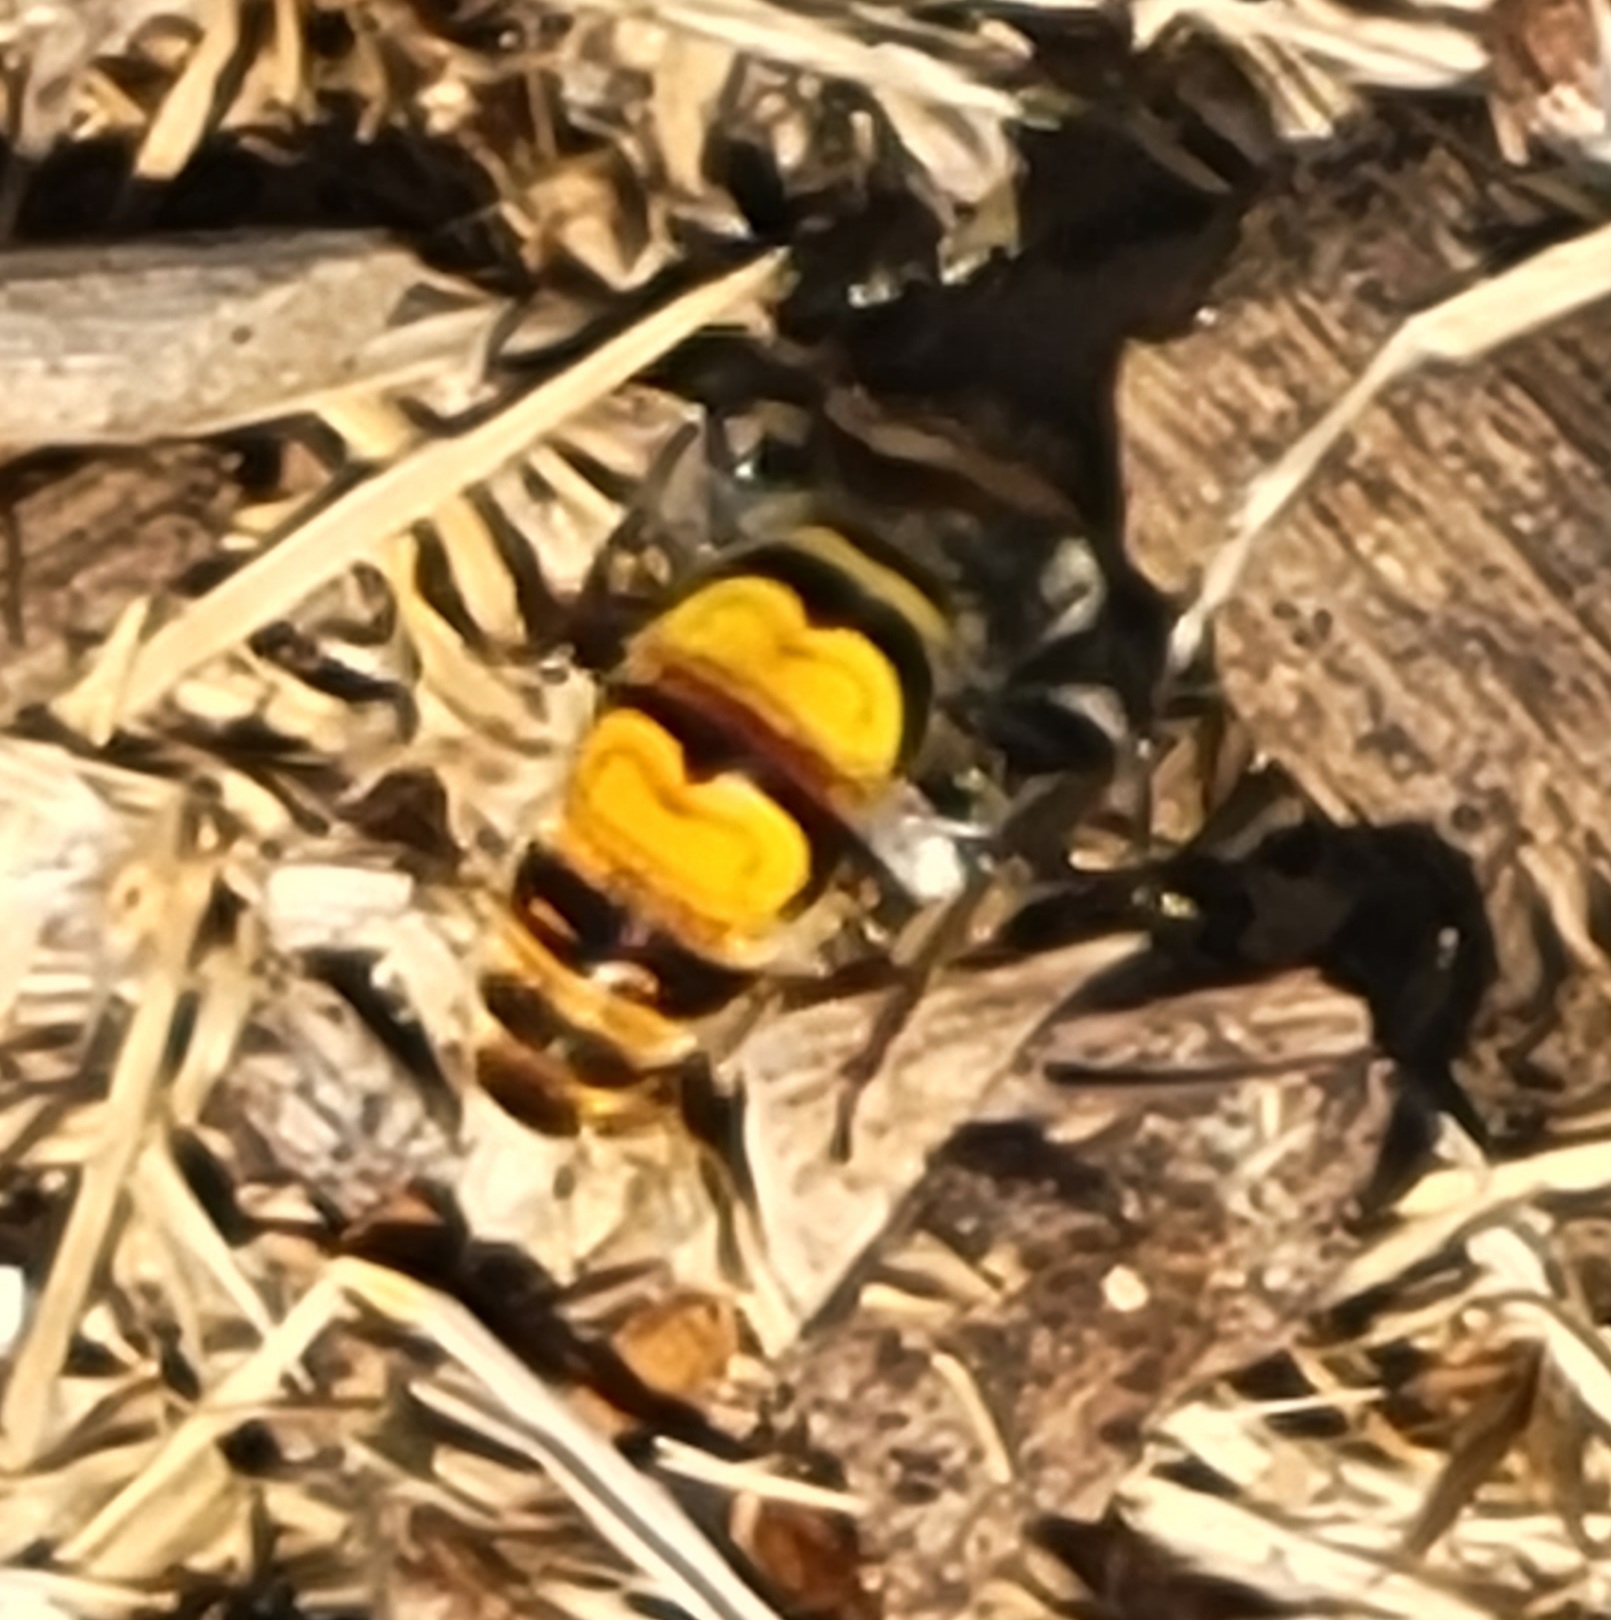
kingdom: Animalia
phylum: Arthropoda
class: Insecta
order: Hymenoptera
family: Scoliidae
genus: Dielis
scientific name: Dielis tolteca
